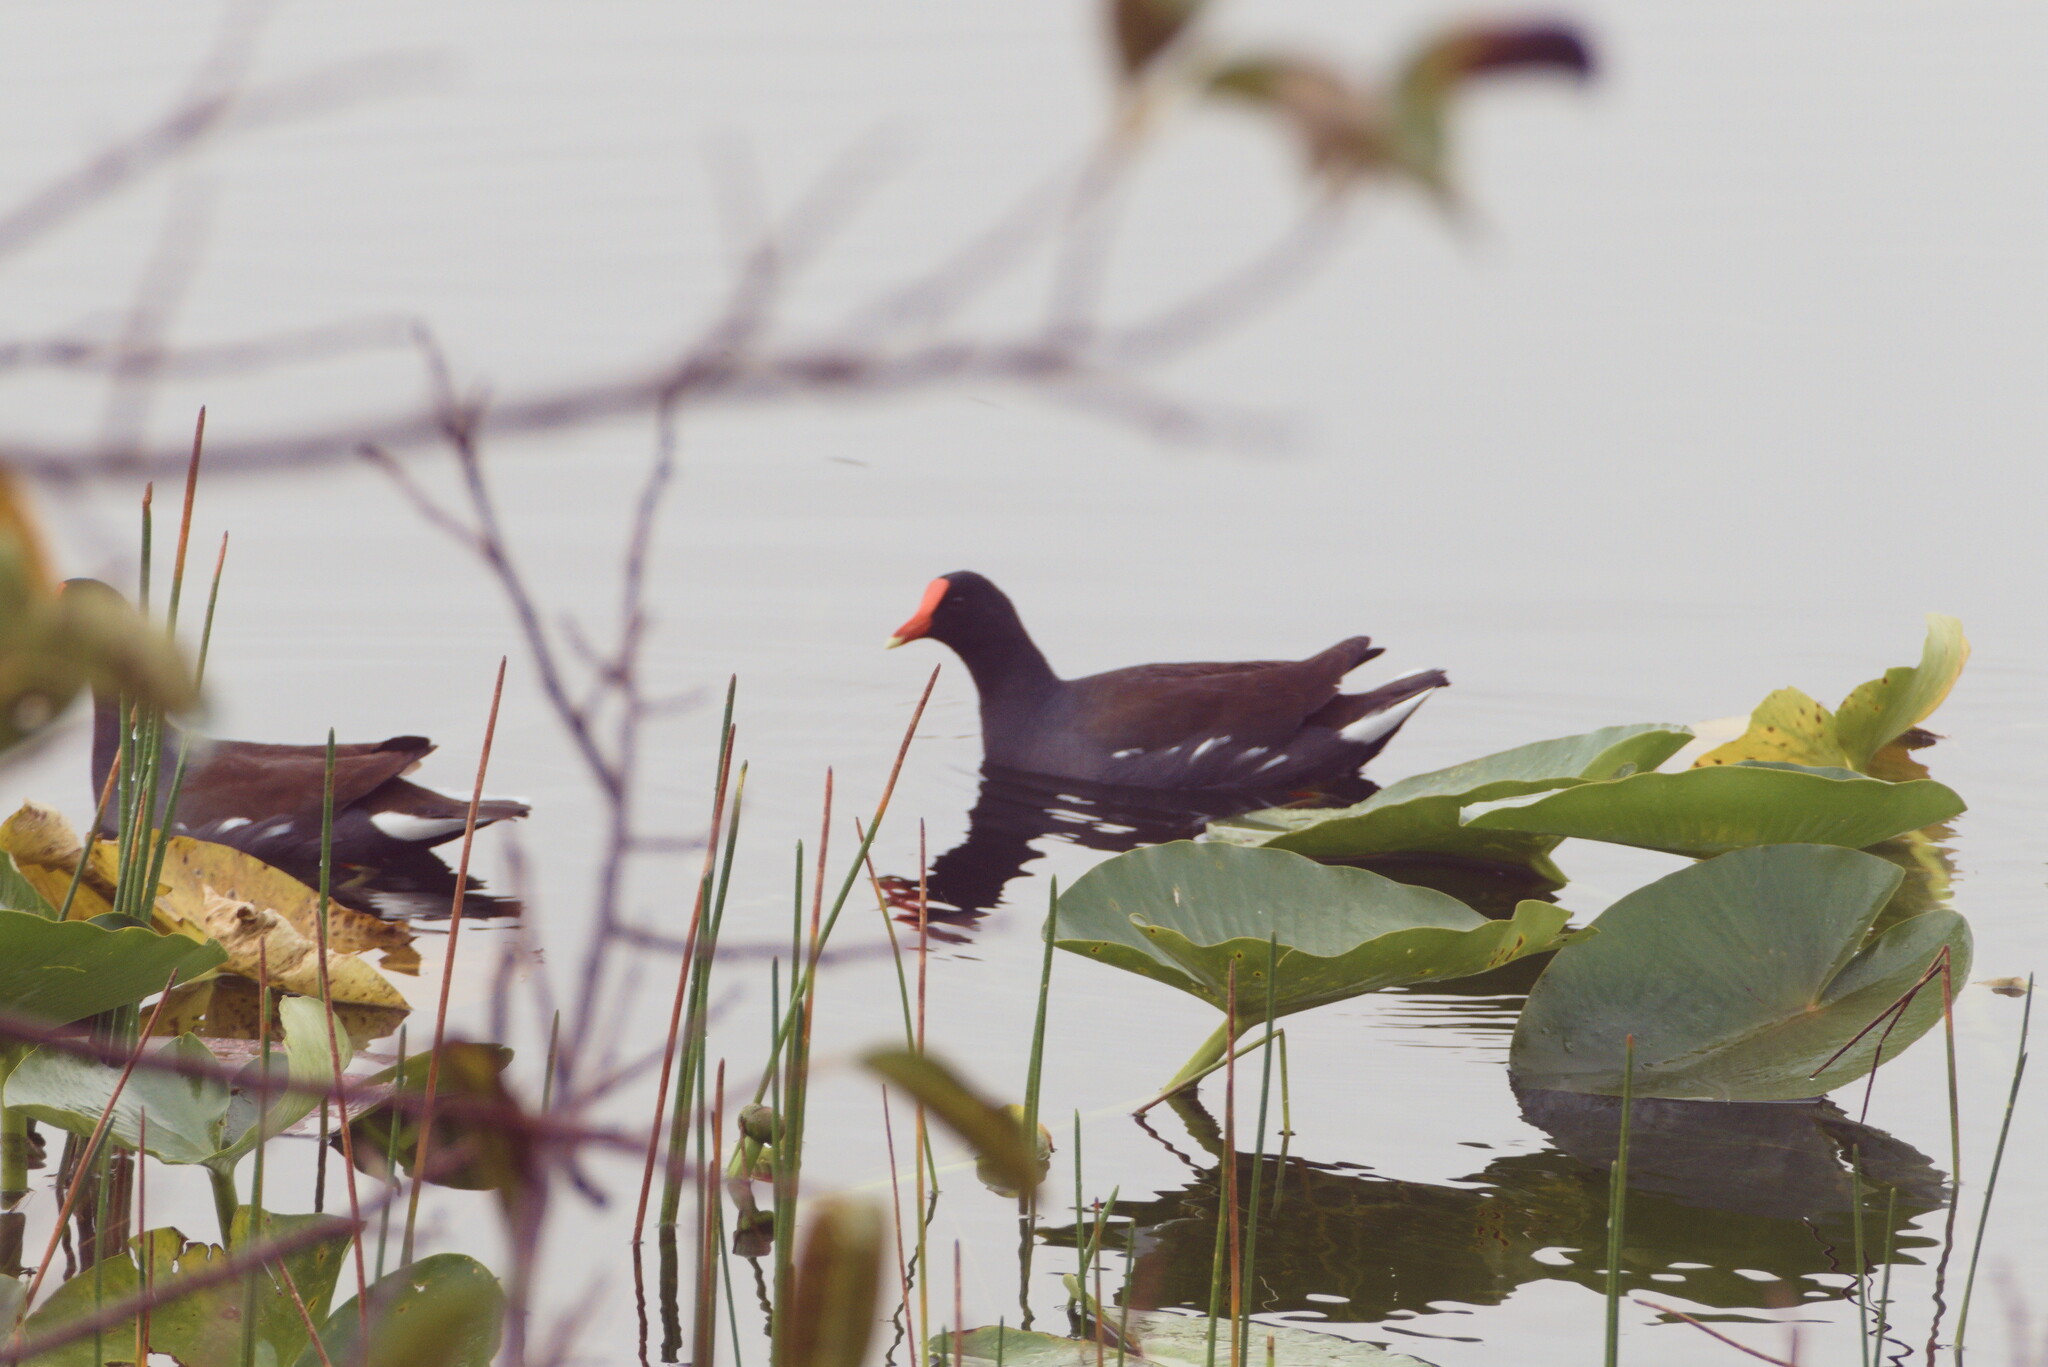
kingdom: Animalia
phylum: Chordata
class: Aves
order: Gruiformes
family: Rallidae
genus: Gallinula
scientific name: Gallinula chloropus
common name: Common moorhen
